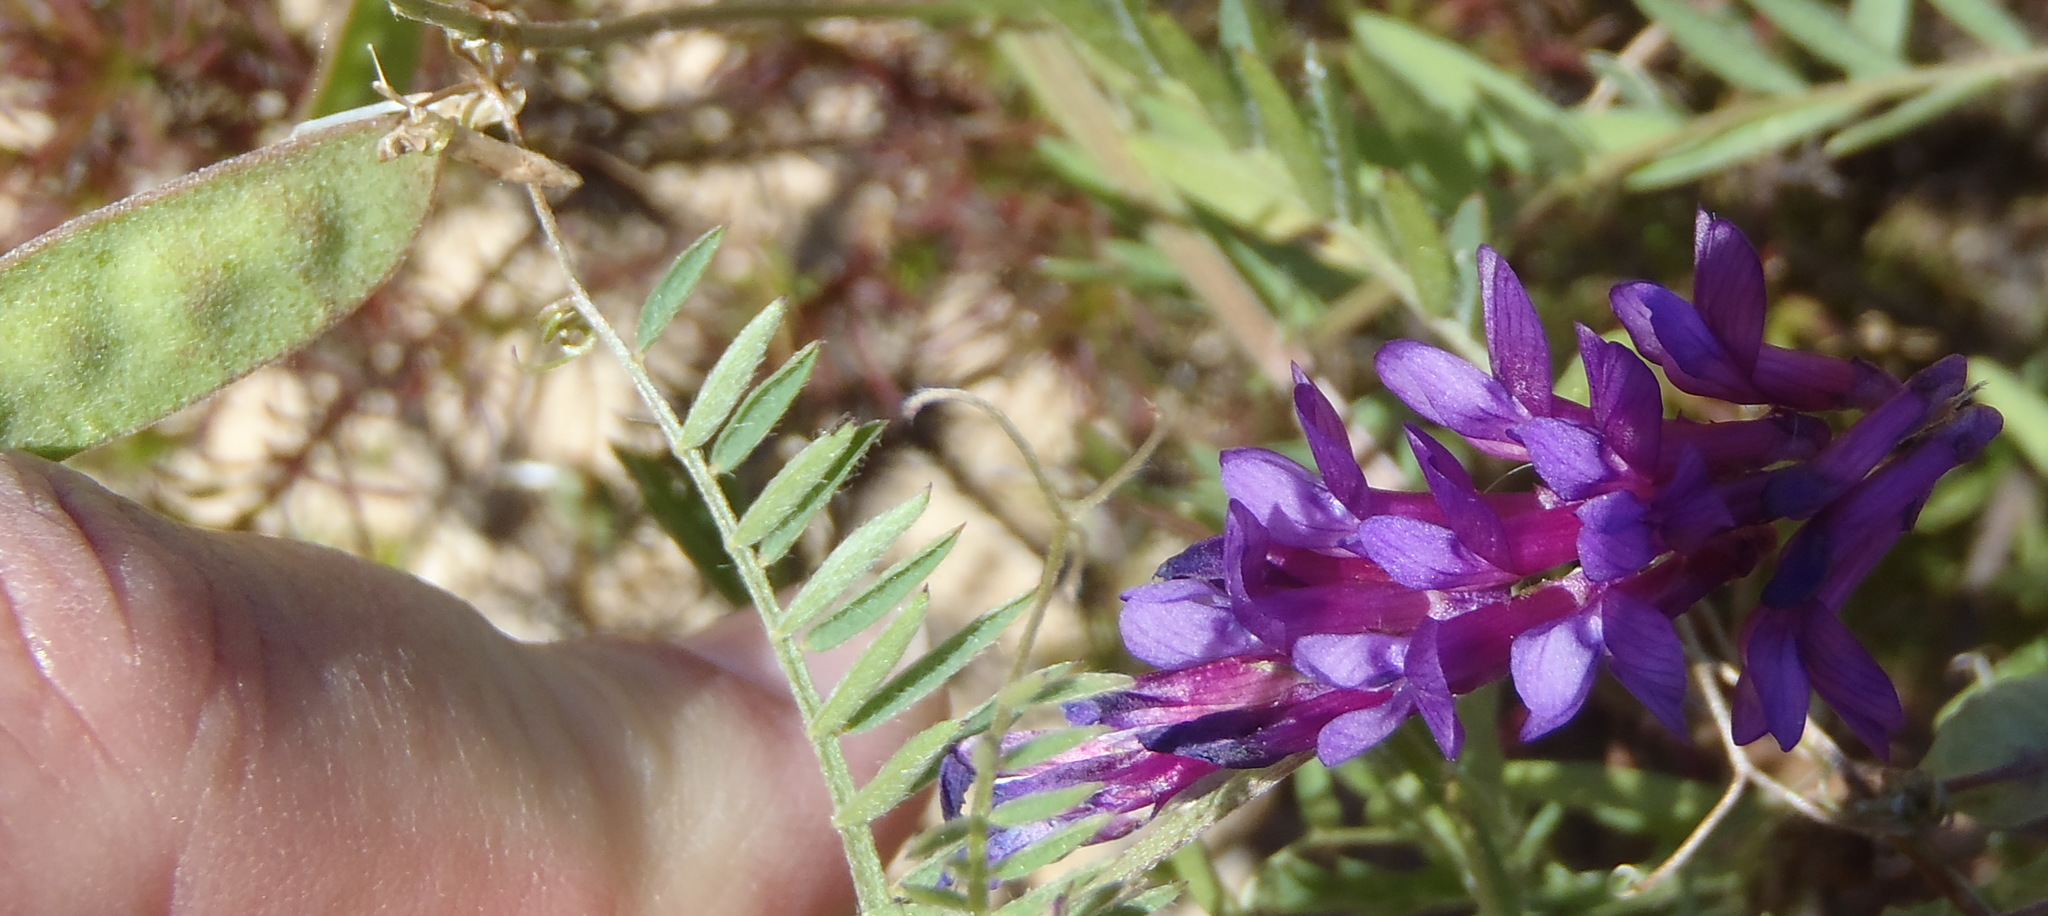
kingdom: Plantae
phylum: Tracheophyta
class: Magnoliopsida
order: Fabales
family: Fabaceae
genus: Vicia
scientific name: Vicia eriocarpa
